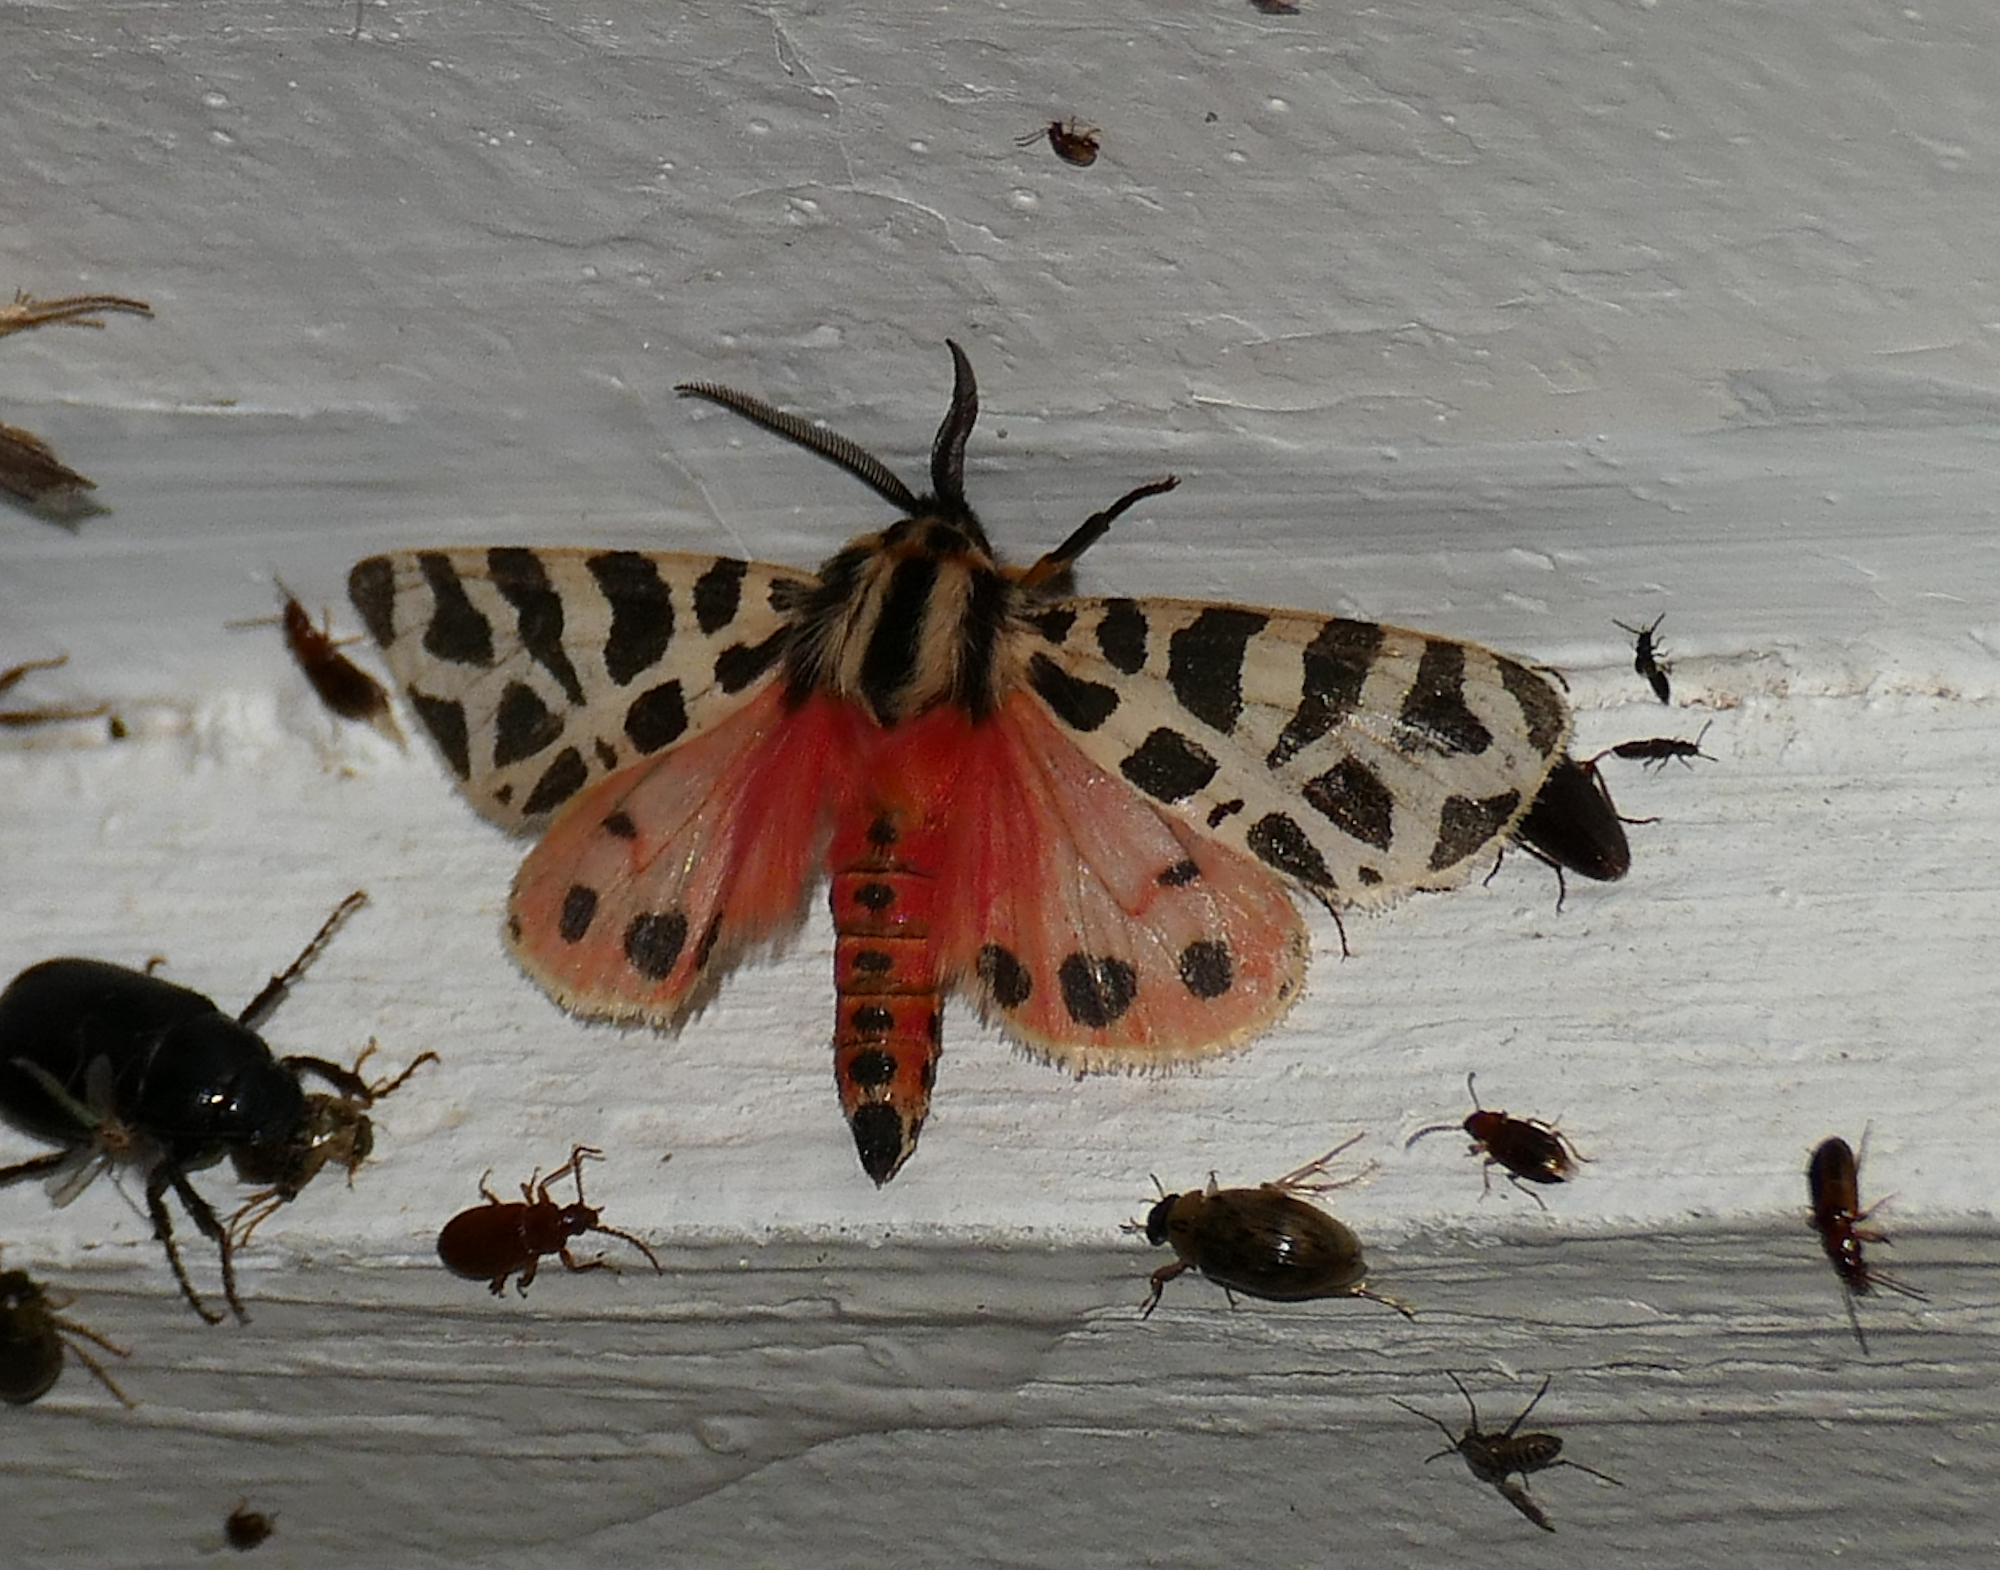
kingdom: Animalia
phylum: Arthropoda
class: Insecta
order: Lepidoptera
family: Erebidae
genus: Apantesis
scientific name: Apantesis incorrupta
